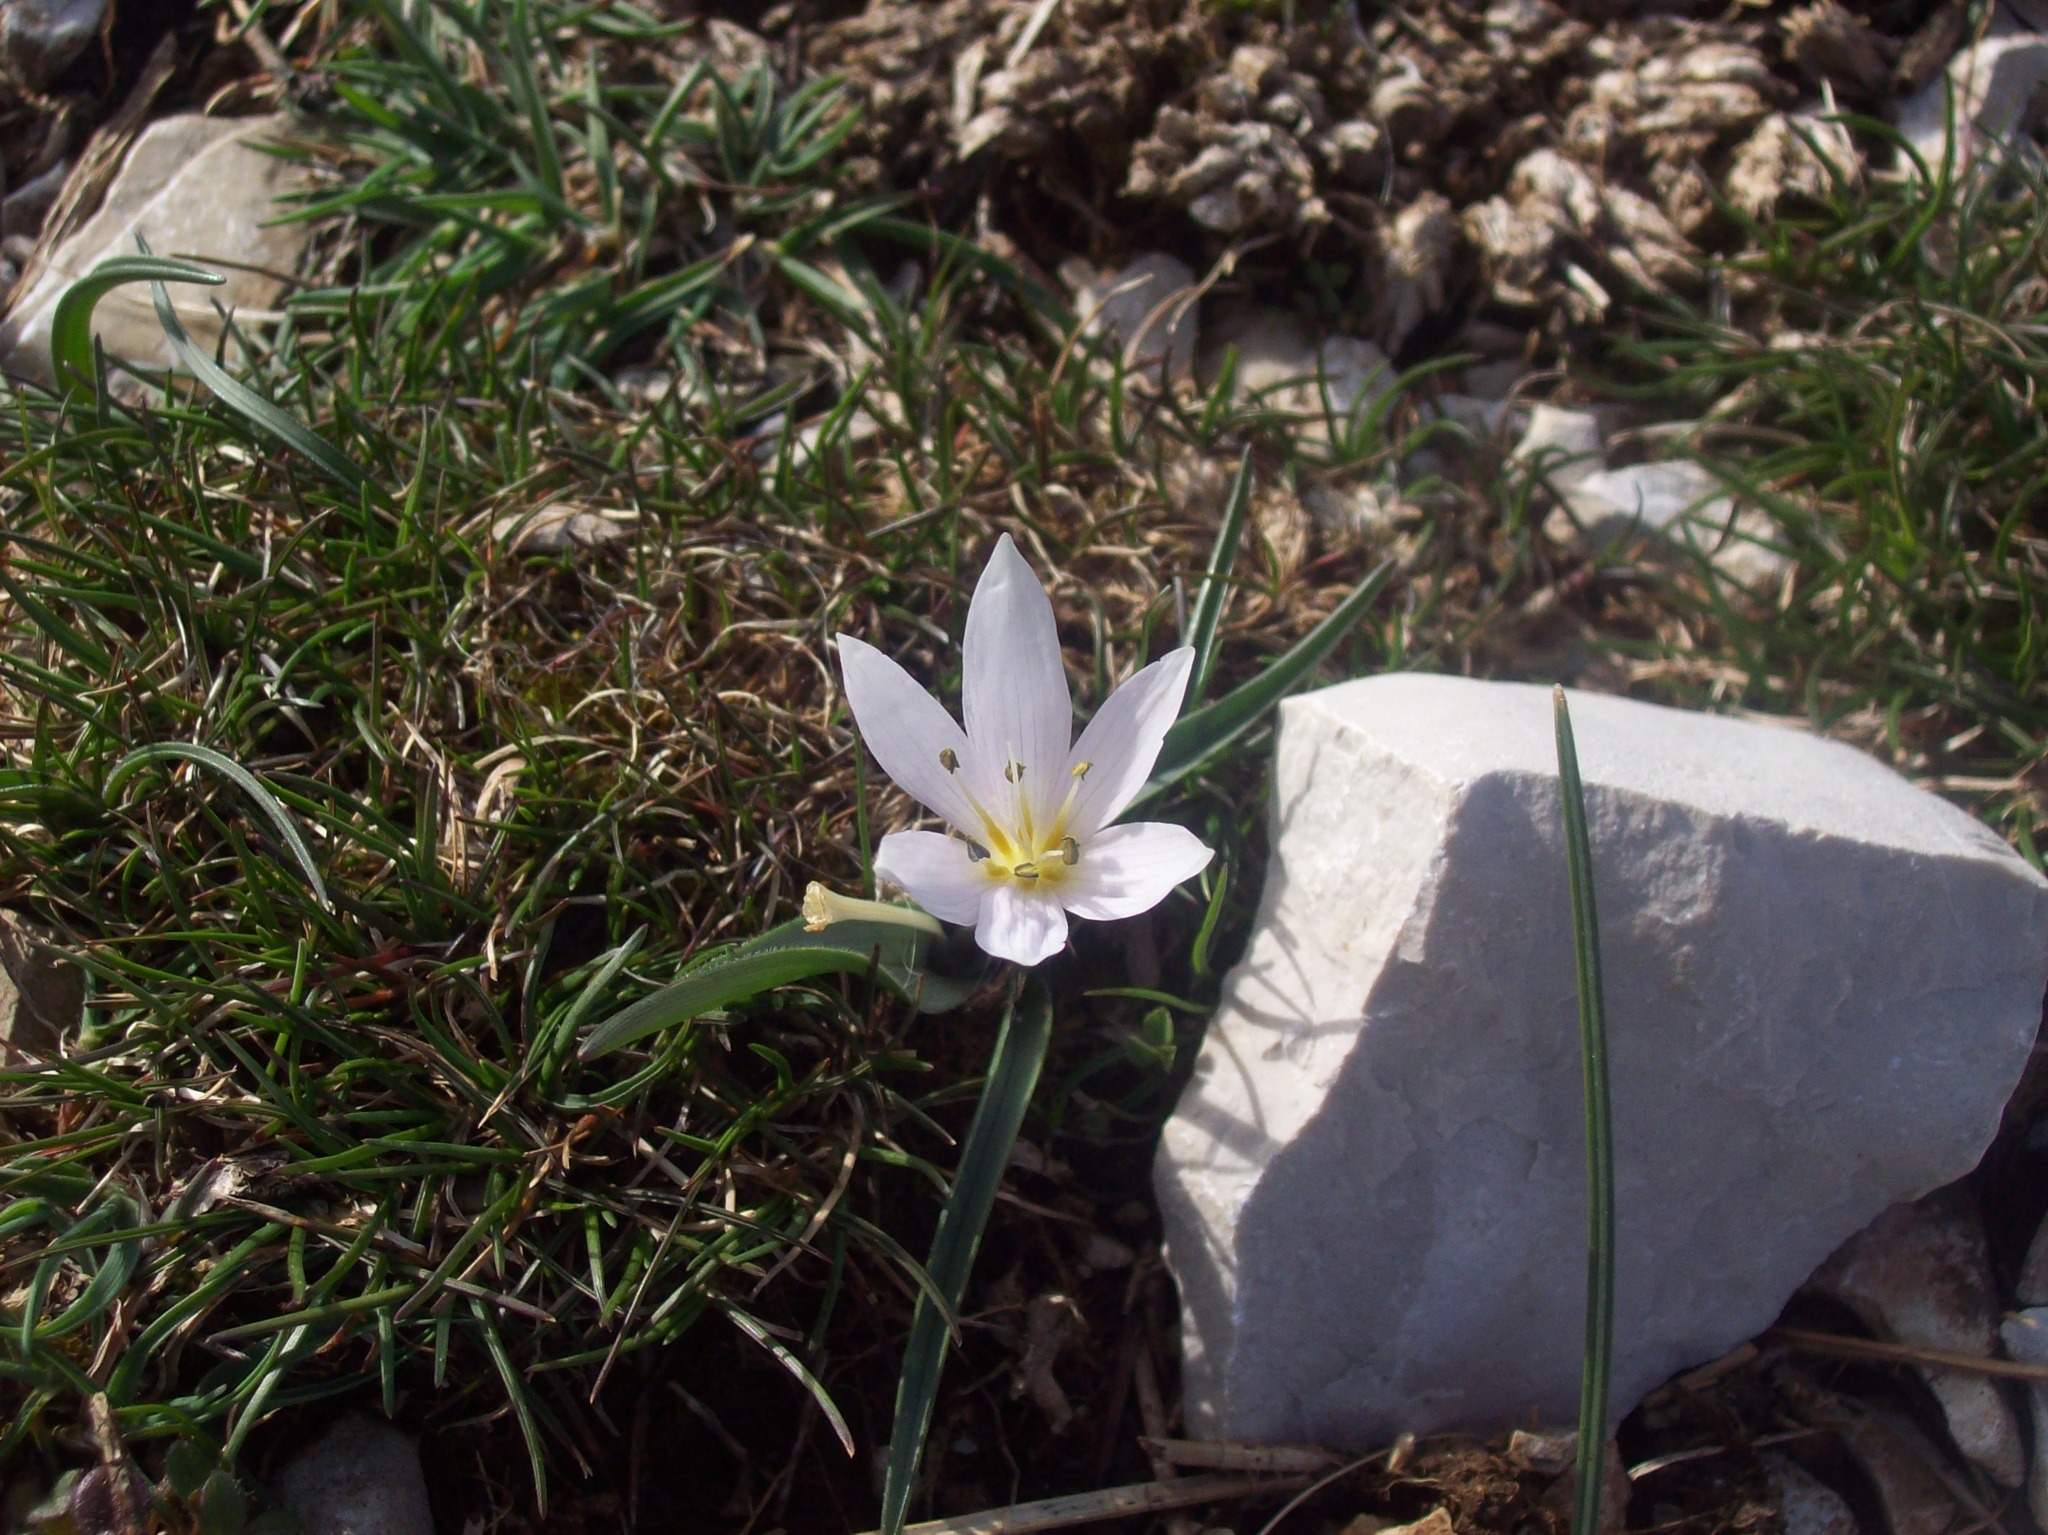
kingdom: Plantae
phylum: Tracheophyta
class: Liliopsida
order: Liliales
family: Colchicaceae
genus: Colchicum
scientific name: Colchicum hungaricum
